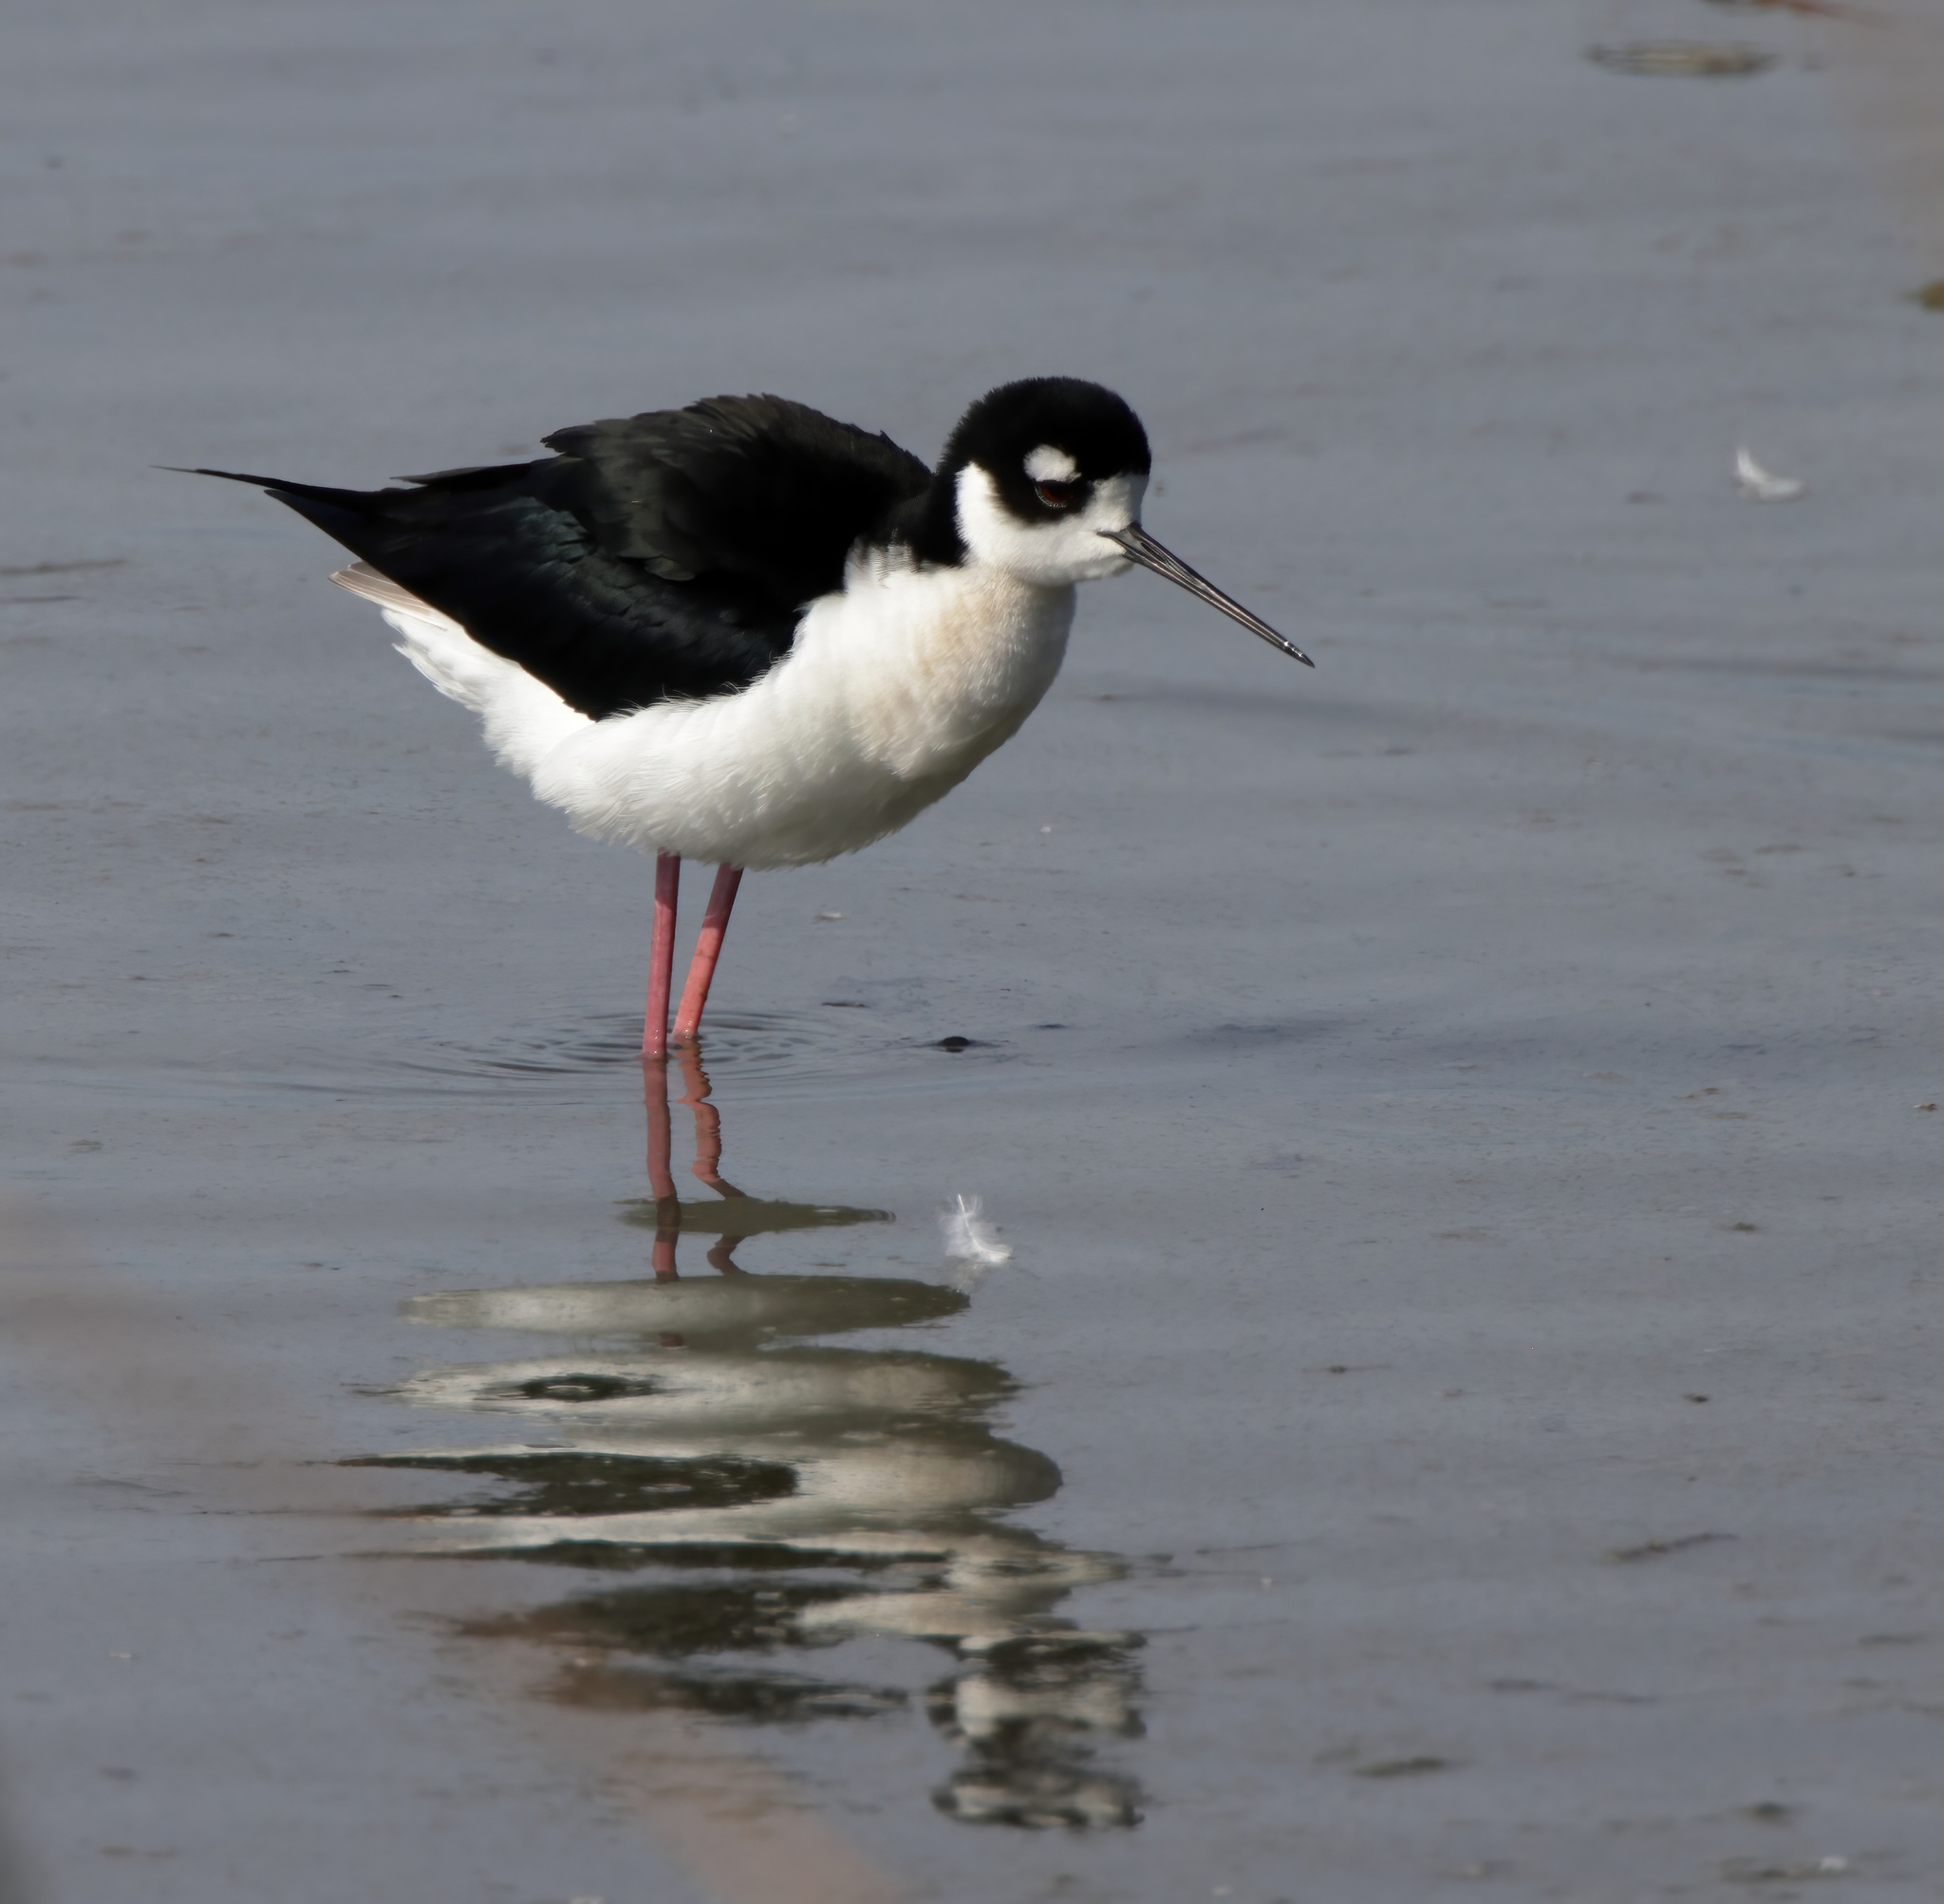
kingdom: Animalia
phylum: Chordata
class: Aves
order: Charadriiformes
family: Recurvirostridae
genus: Himantopus
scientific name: Himantopus mexicanus
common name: Black-necked stilt
